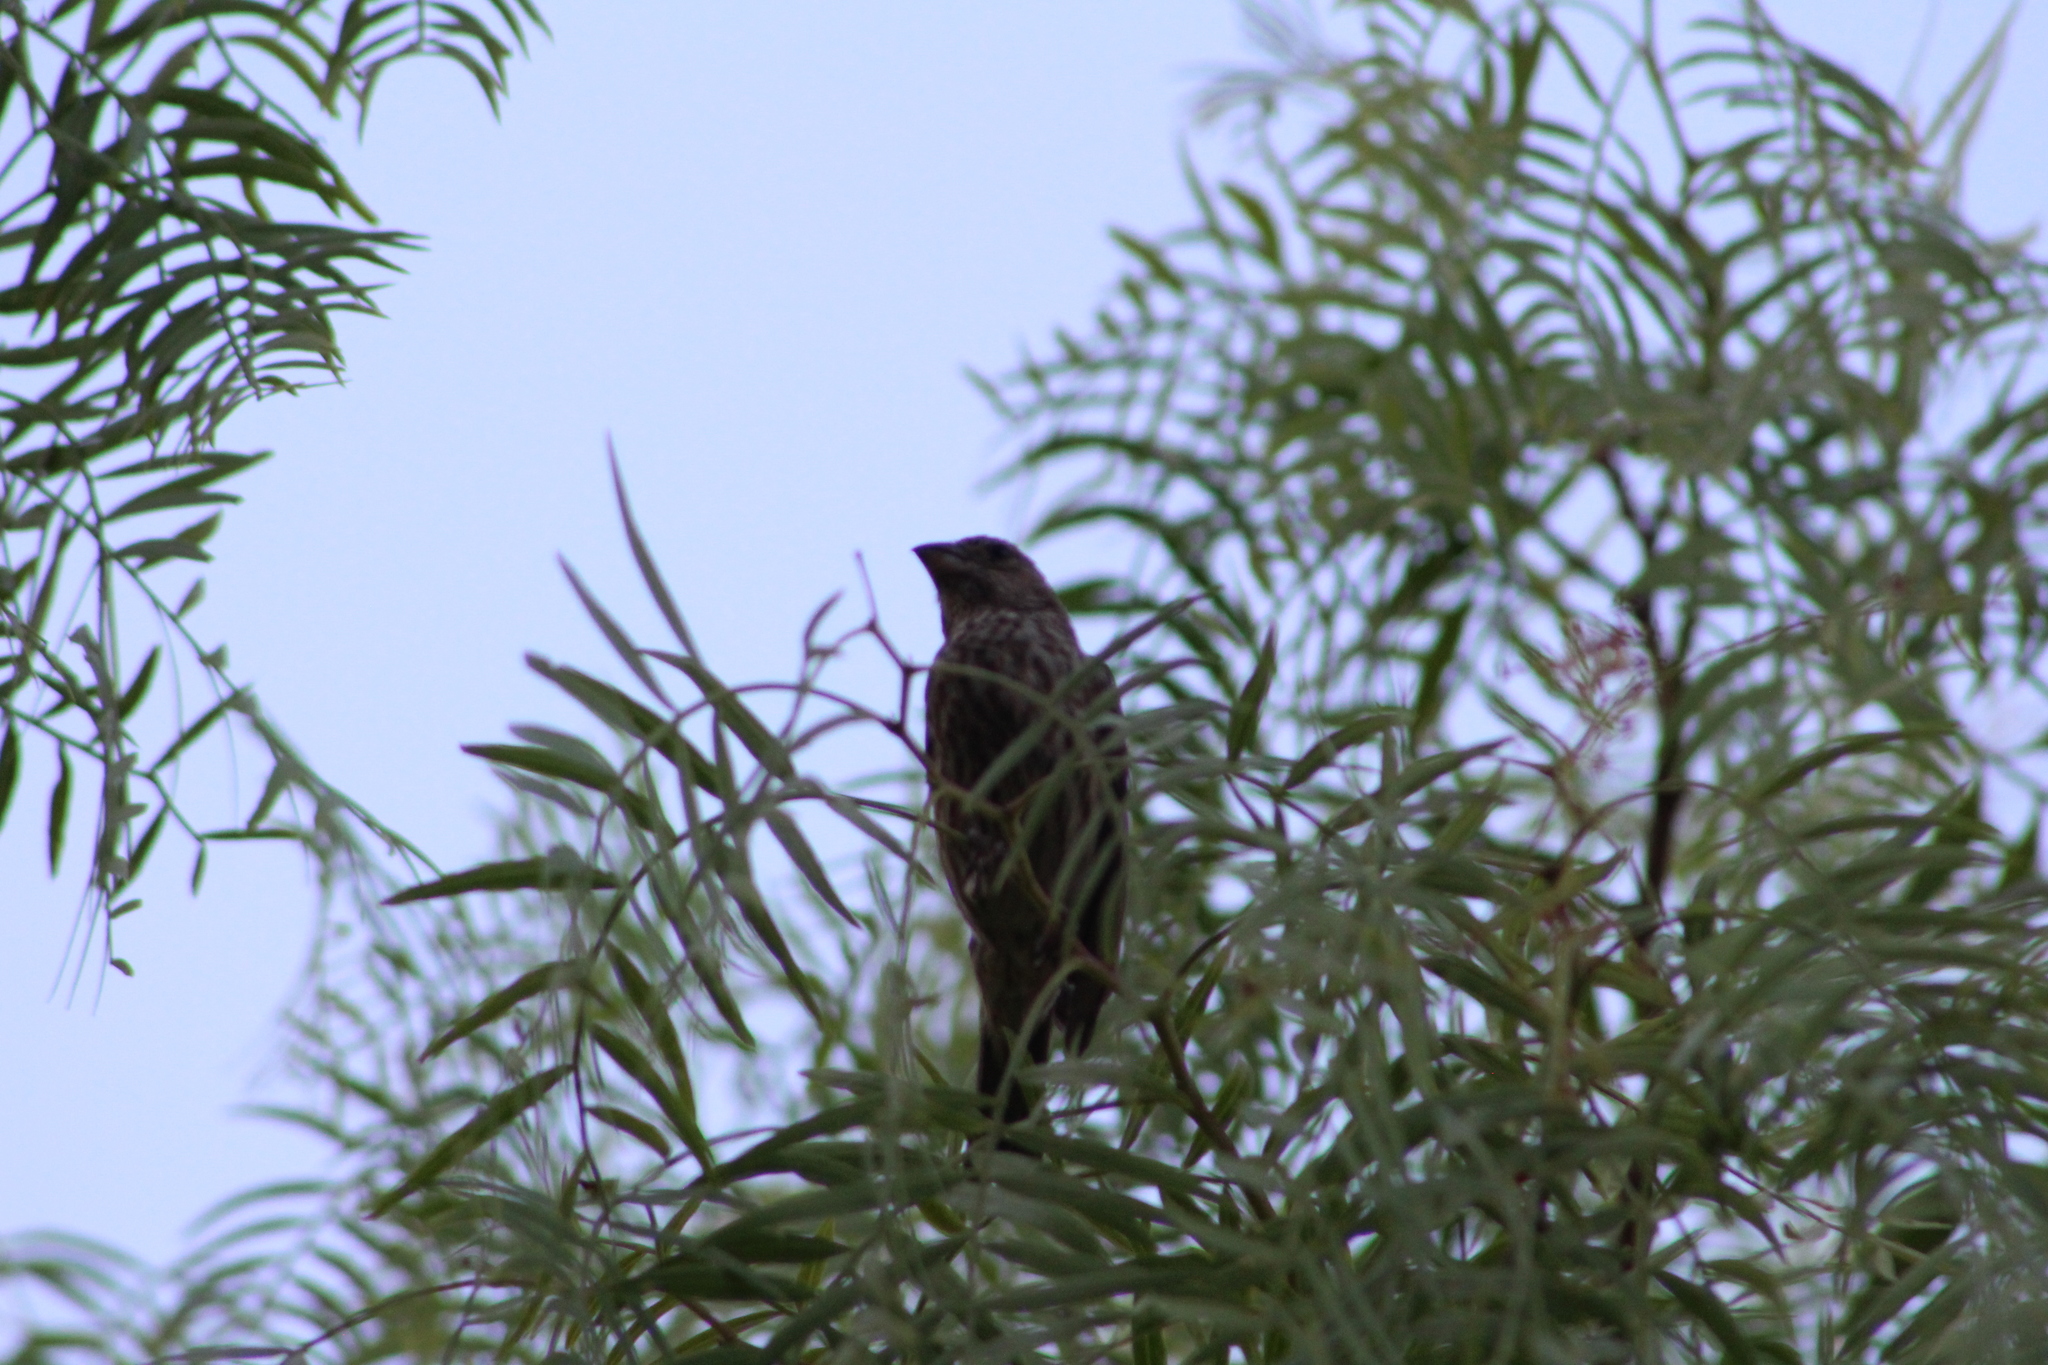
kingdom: Animalia
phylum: Chordata
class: Aves
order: Passeriformes
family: Fringillidae
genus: Haemorhous
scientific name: Haemorhous mexicanus
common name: House finch
